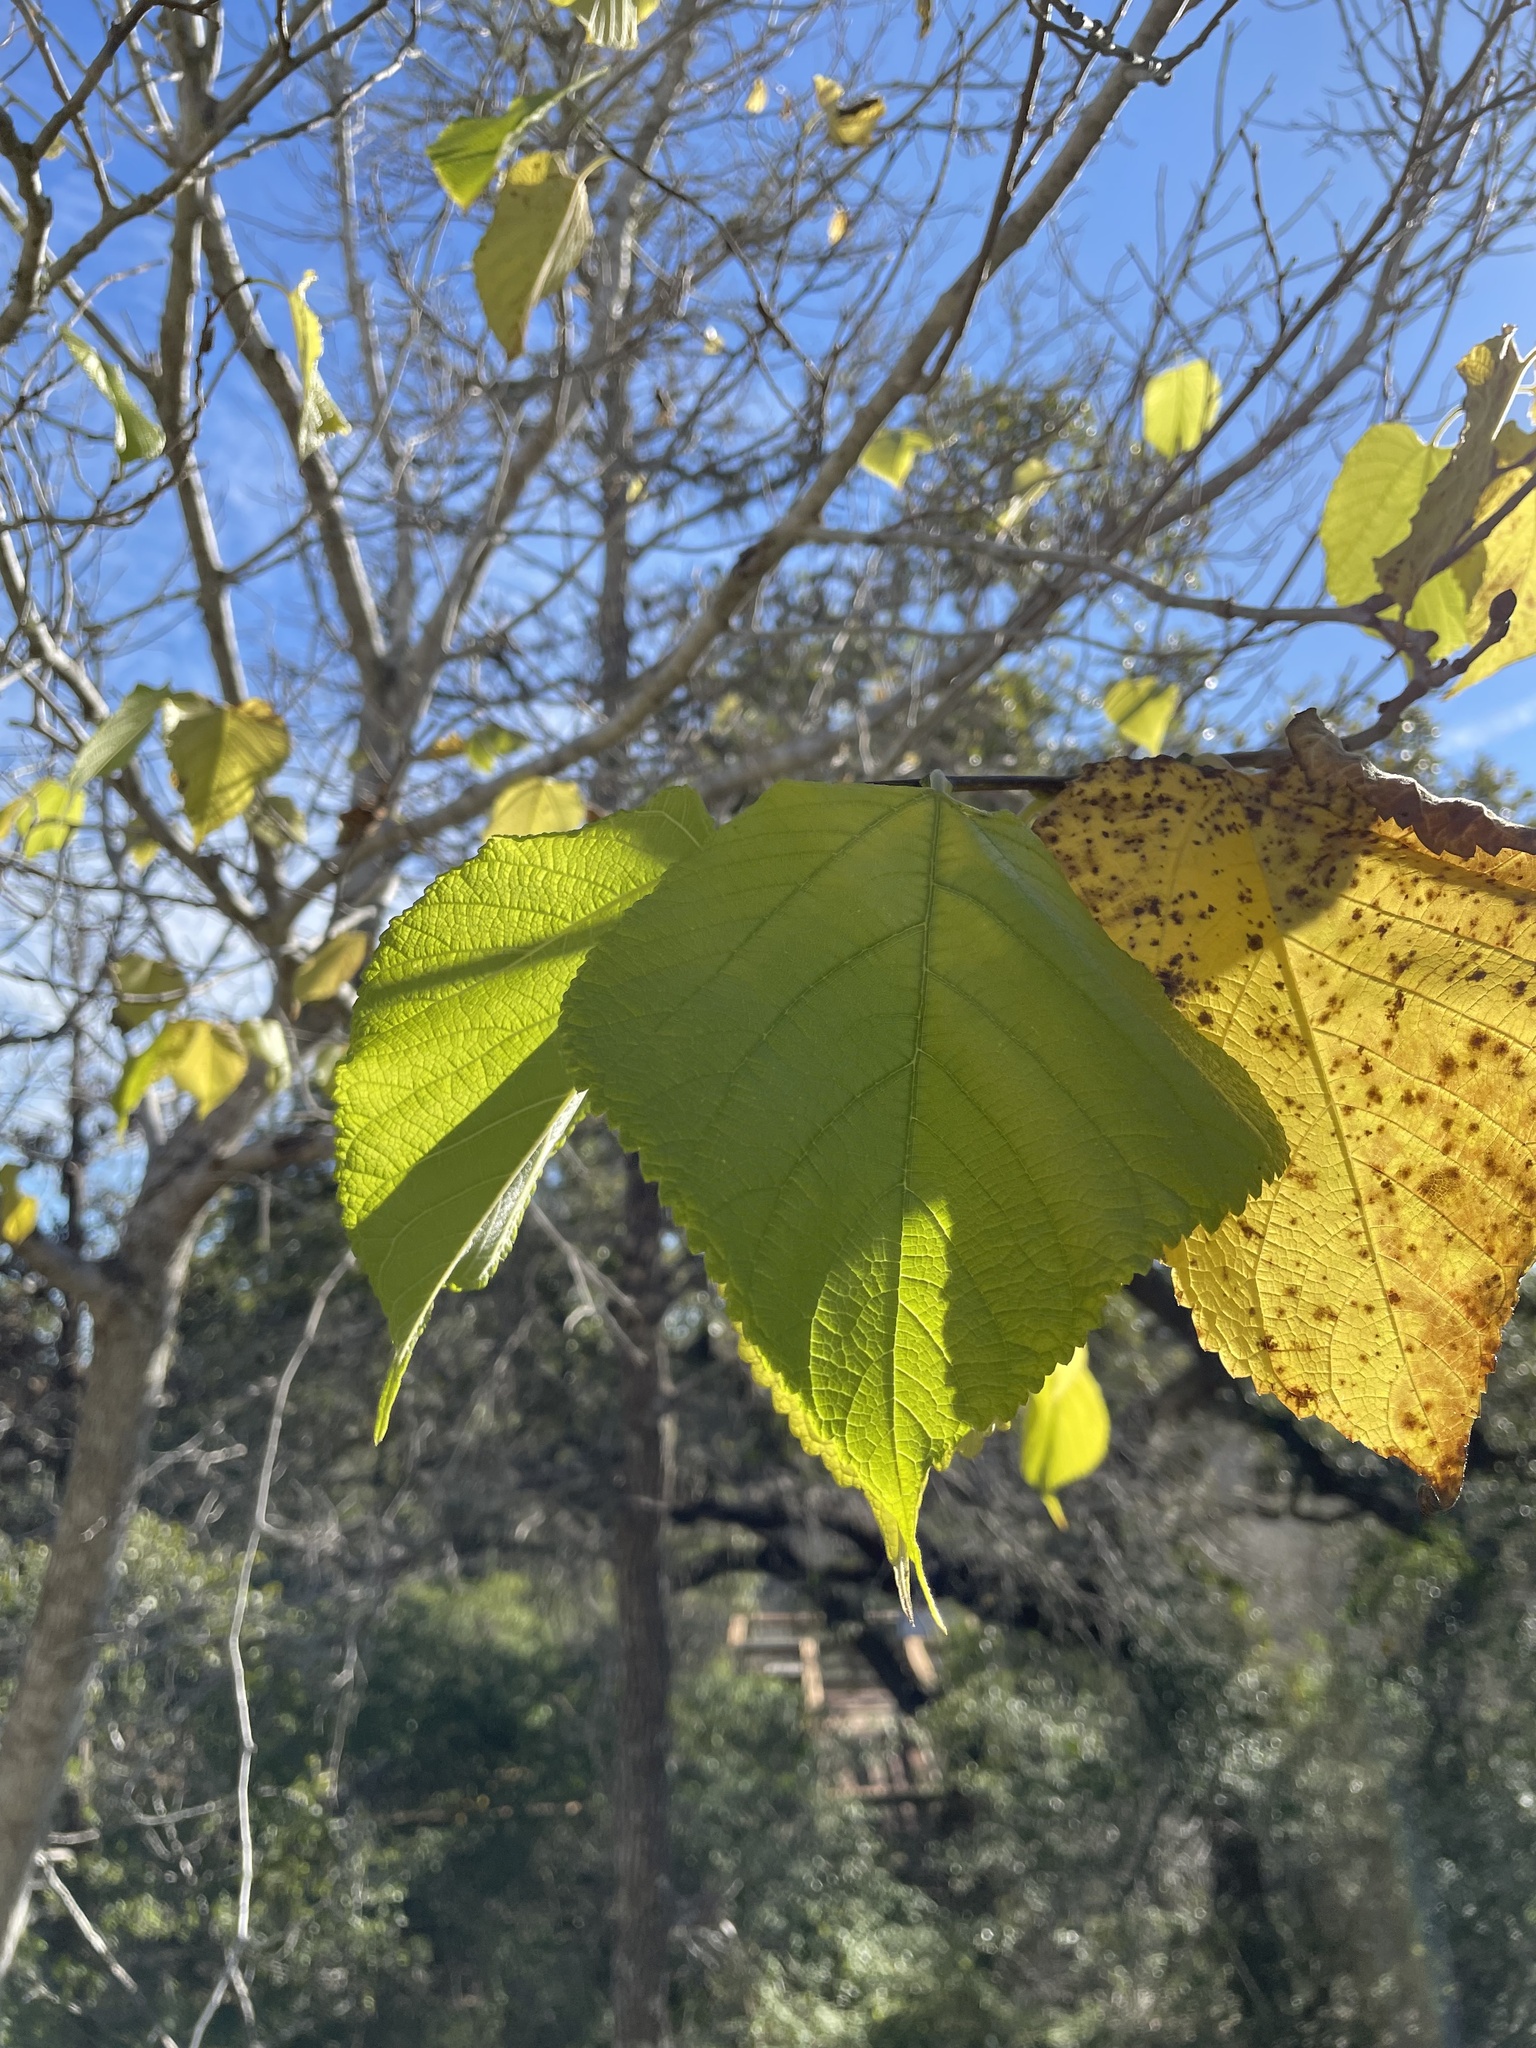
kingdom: Plantae
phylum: Tracheophyta
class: Magnoliopsida
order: Rosales
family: Moraceae
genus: Morus
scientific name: Morus rubra
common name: Red mulberry
